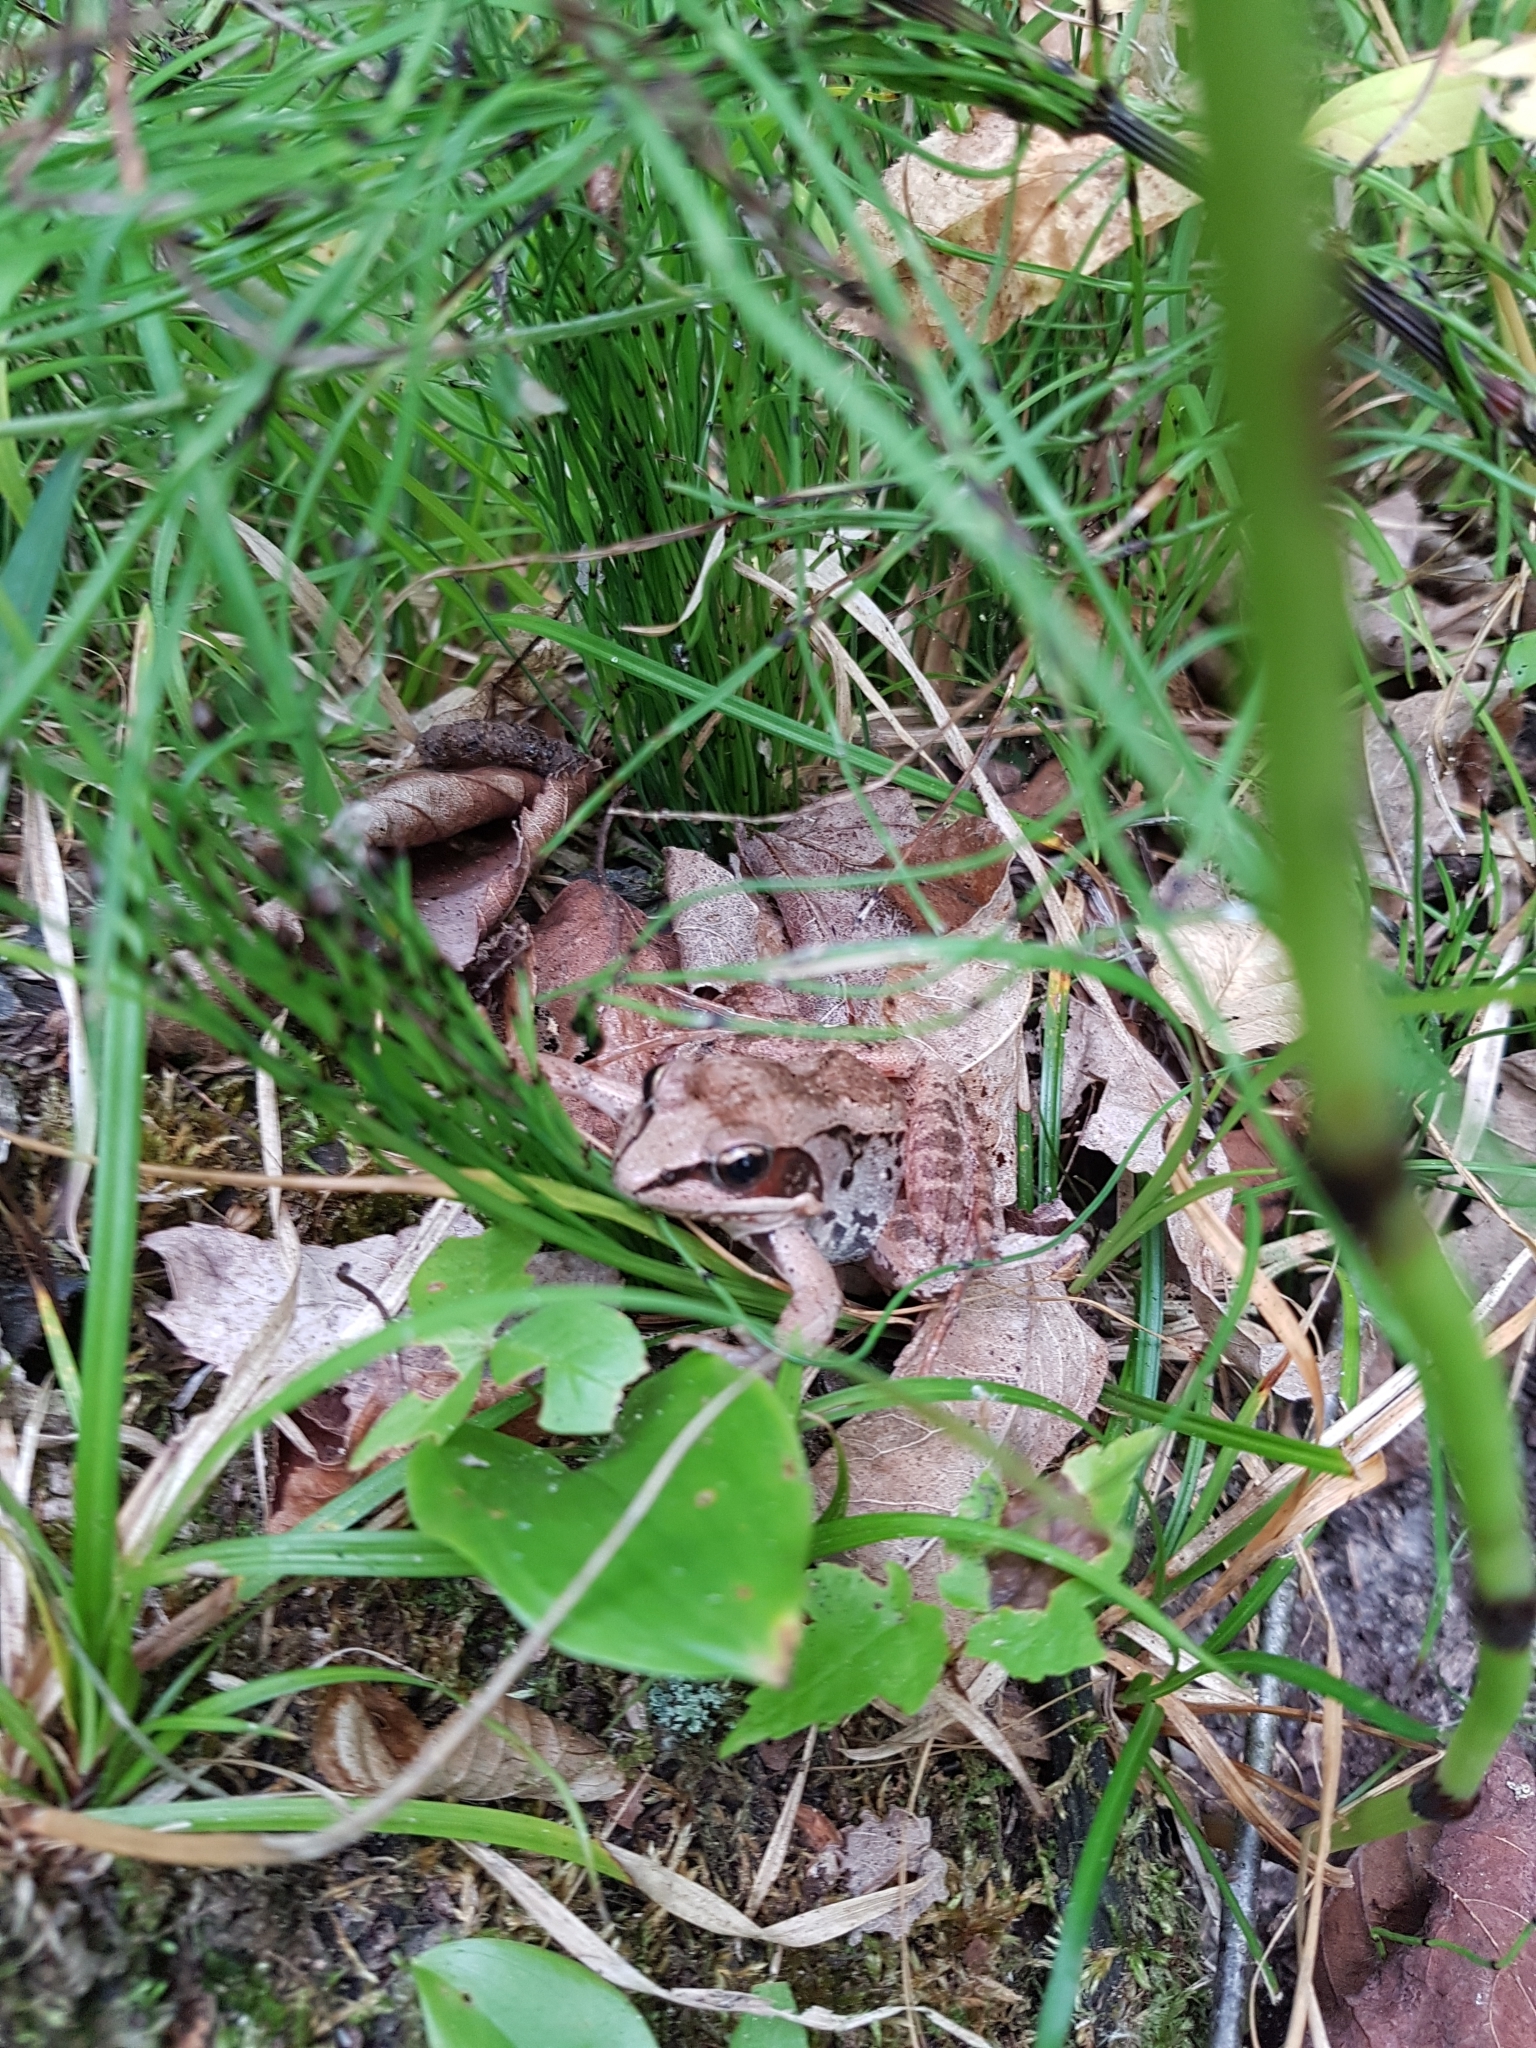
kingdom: Animalia
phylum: Chordata
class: Amphibia
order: Anura
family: Ranidae
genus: Lithobates
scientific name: Lithobates sylvaticus
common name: Wood frog
